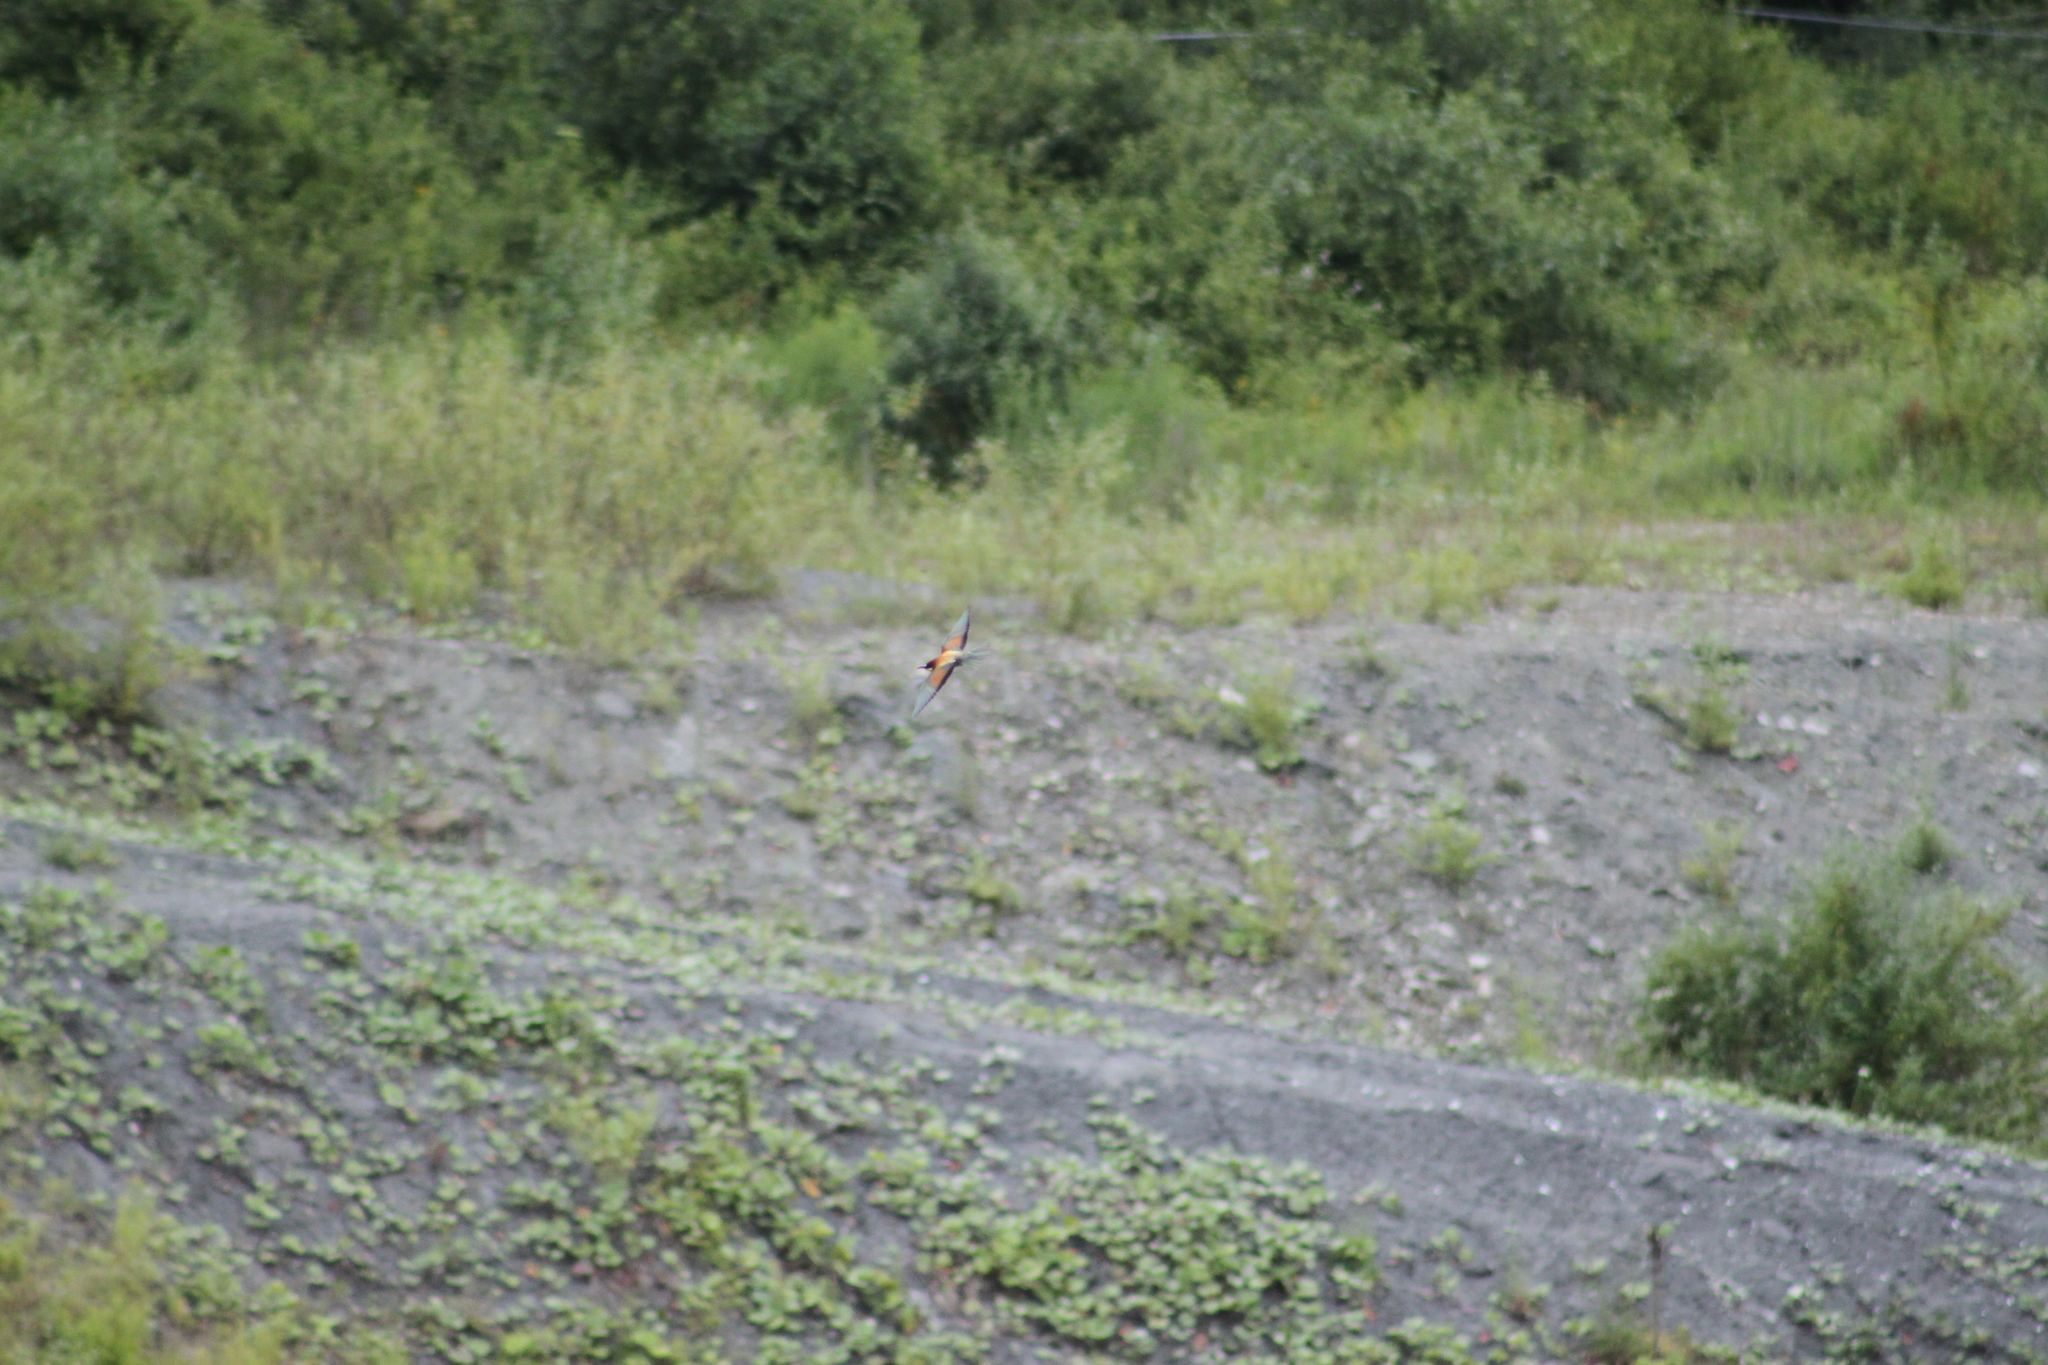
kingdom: Animalia
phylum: Chordata
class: Aves
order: Coraciiformes
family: Meropidae
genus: Merops
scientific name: Merops apiaster
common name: European bee-eater
